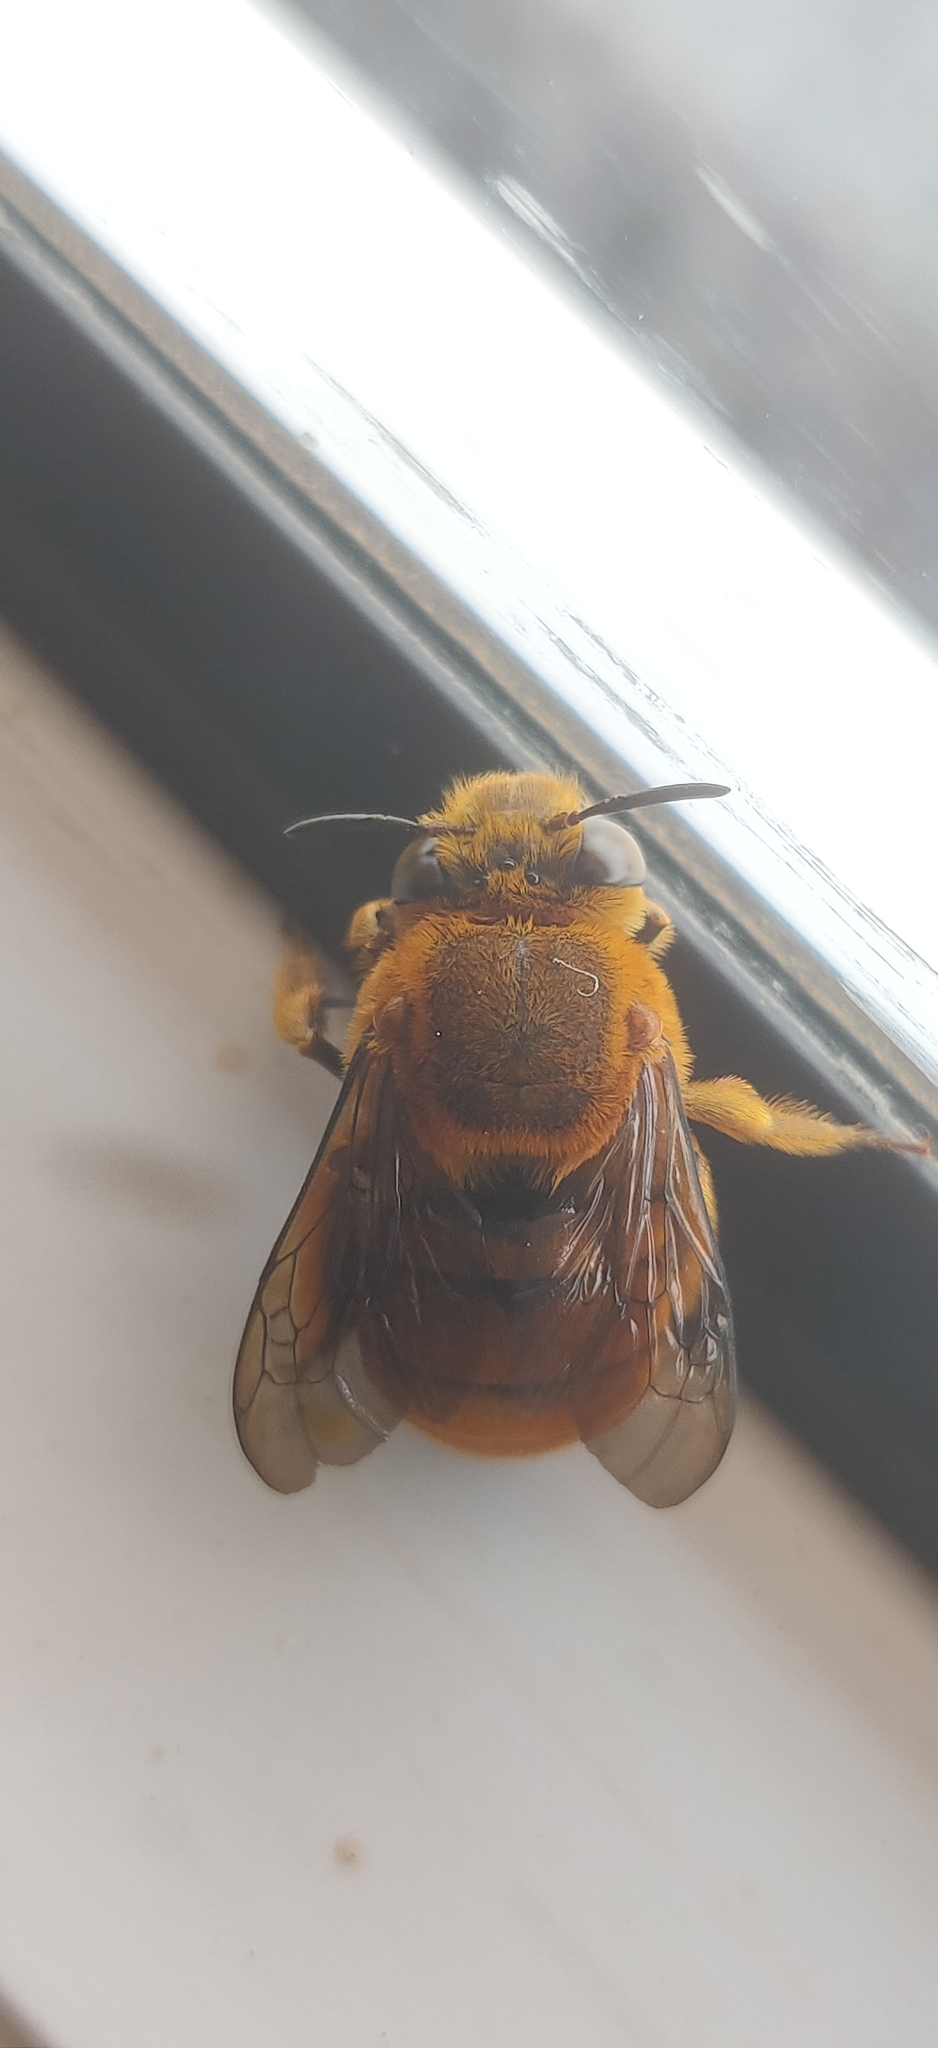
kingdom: Animalia
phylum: Arthropoda
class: Insecta
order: Hymenoptera
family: Apidae
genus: Amegilla
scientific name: Amegilla subinsularis
